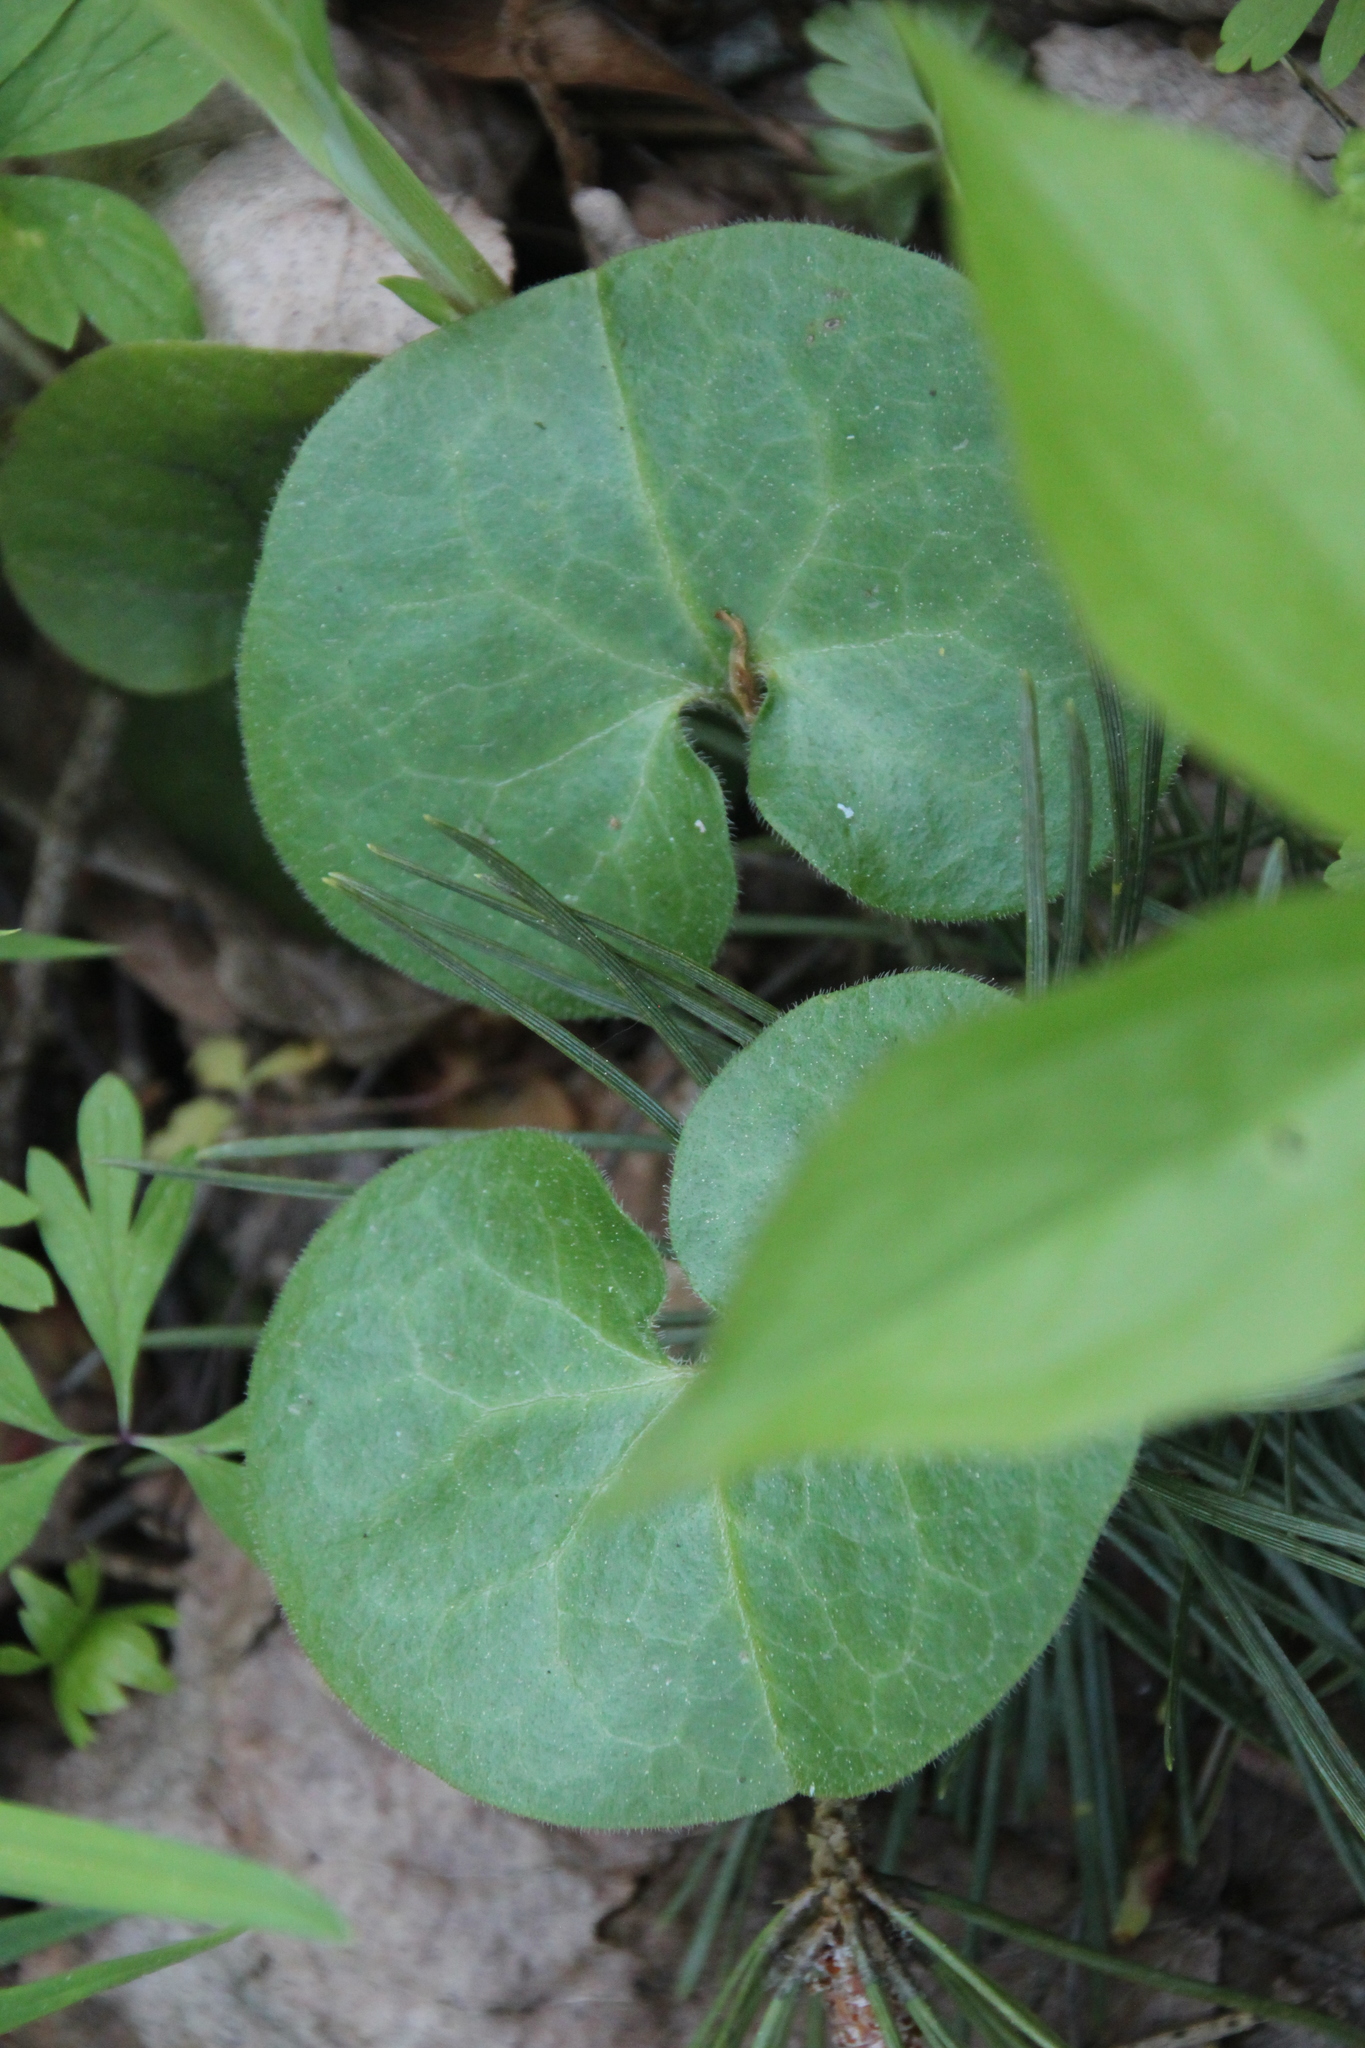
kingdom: Plantae
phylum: Tracheophyta
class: Magnoliopsida
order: Piperales
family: Aristolochiaceae
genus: Asarum
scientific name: Asarum europaeum
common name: Asarabacca
